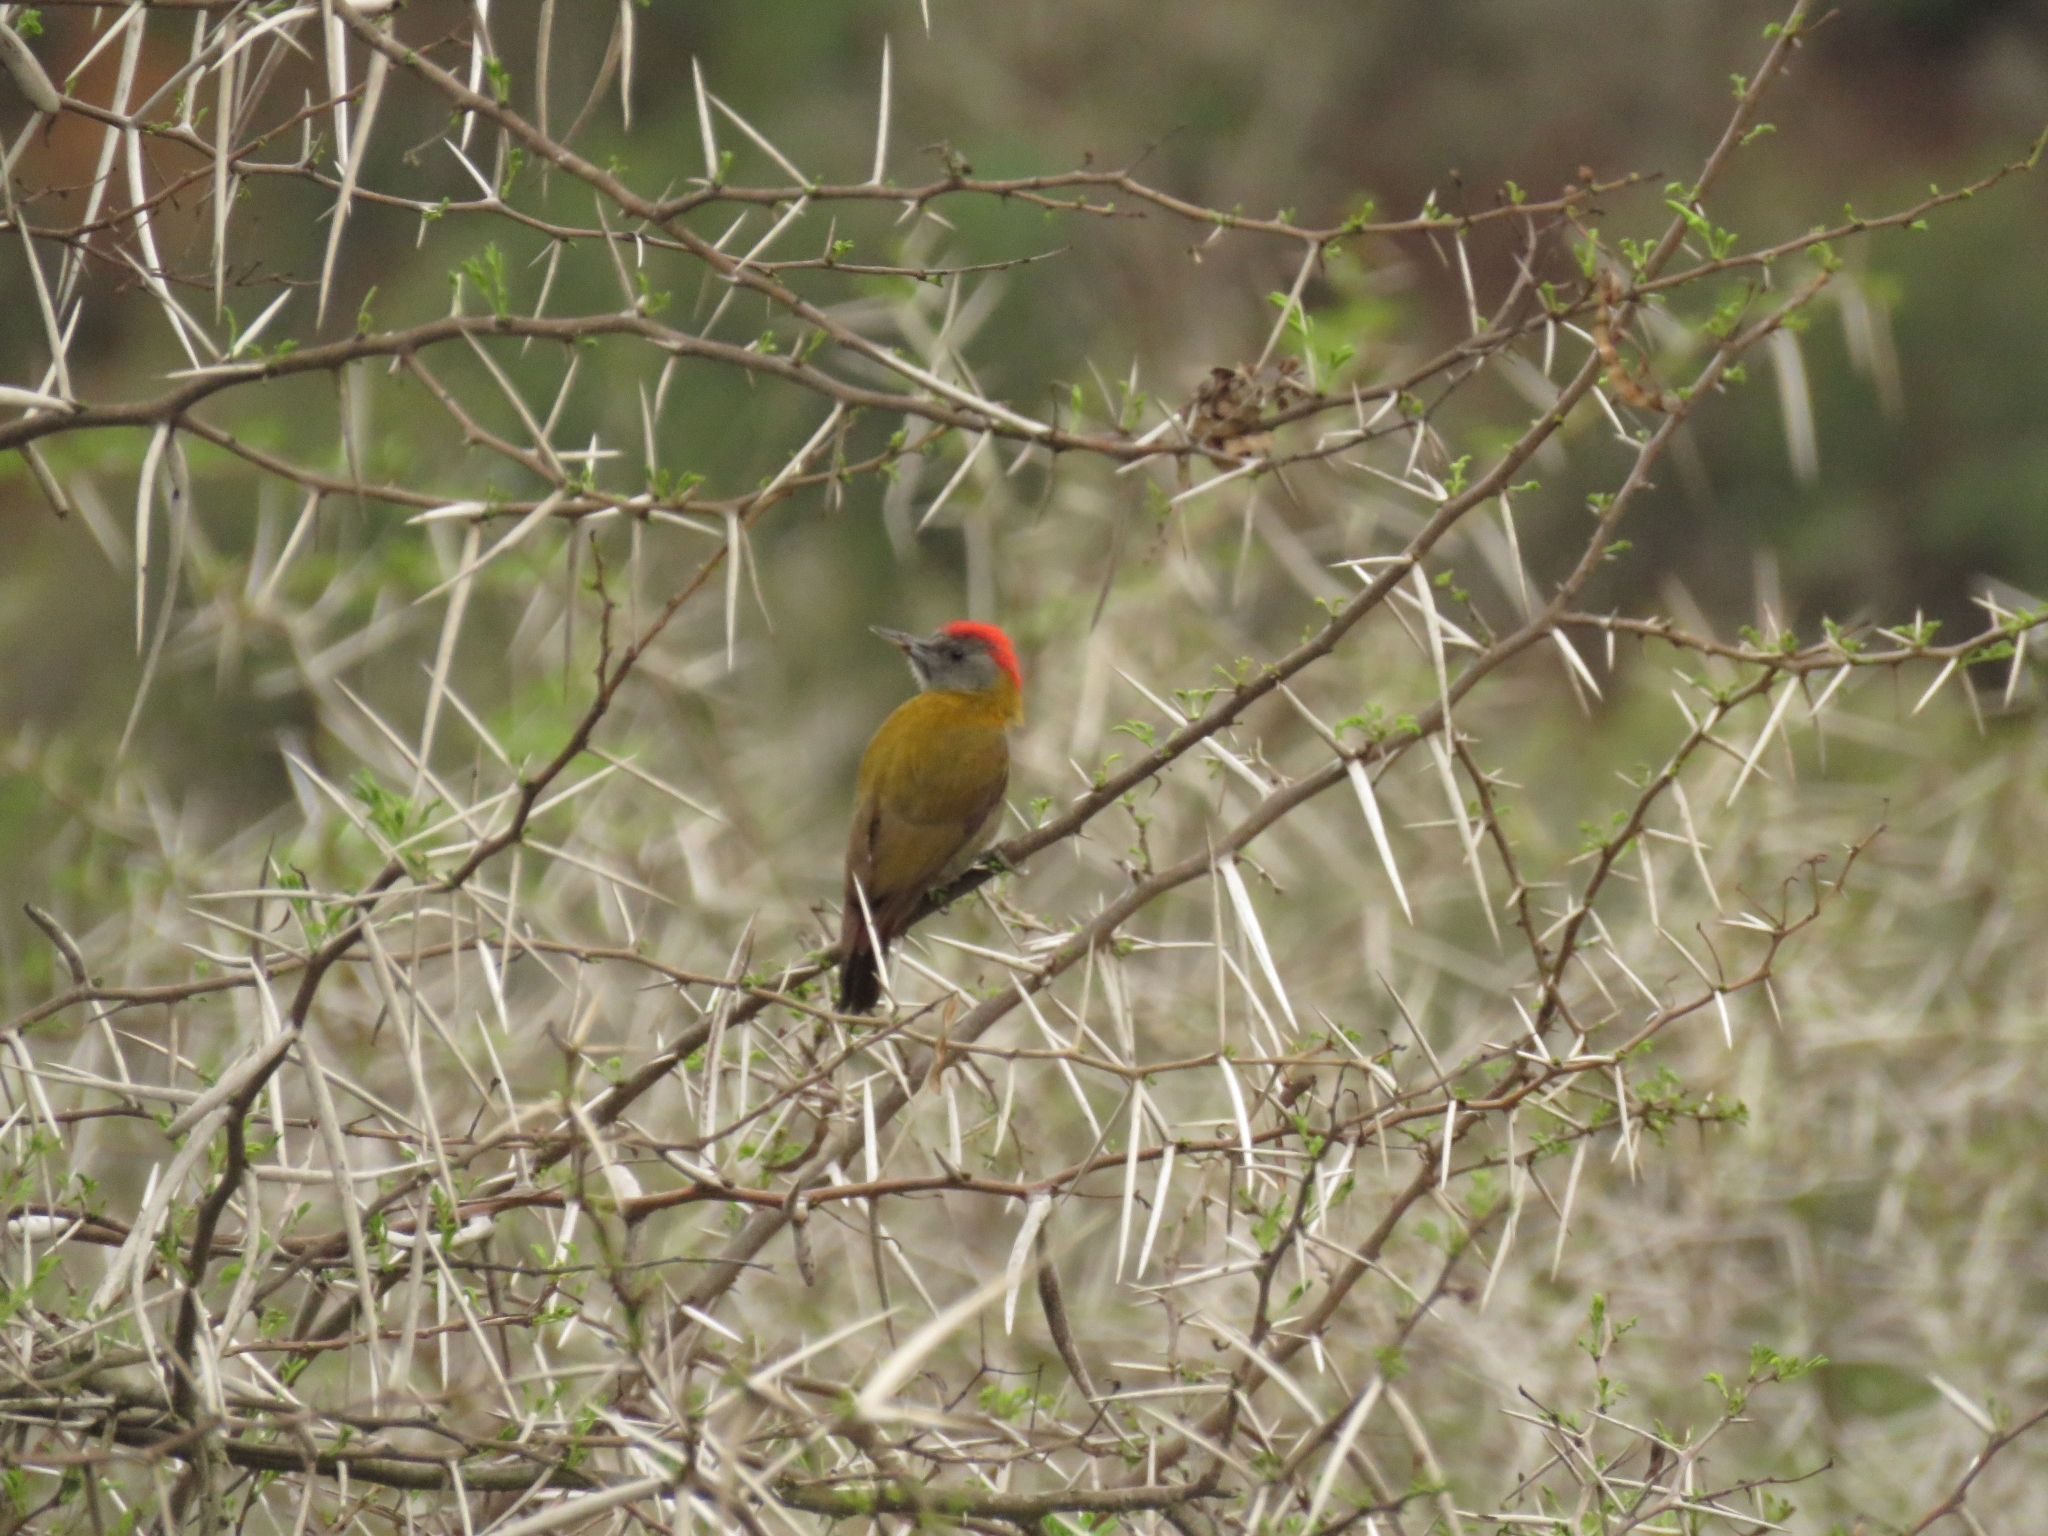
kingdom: Animalia
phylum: Chordata
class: Aves
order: Piciformes
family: Picidae
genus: Dendropicos
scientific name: Dendropicos griseocephalus
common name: Olive woodpecker
